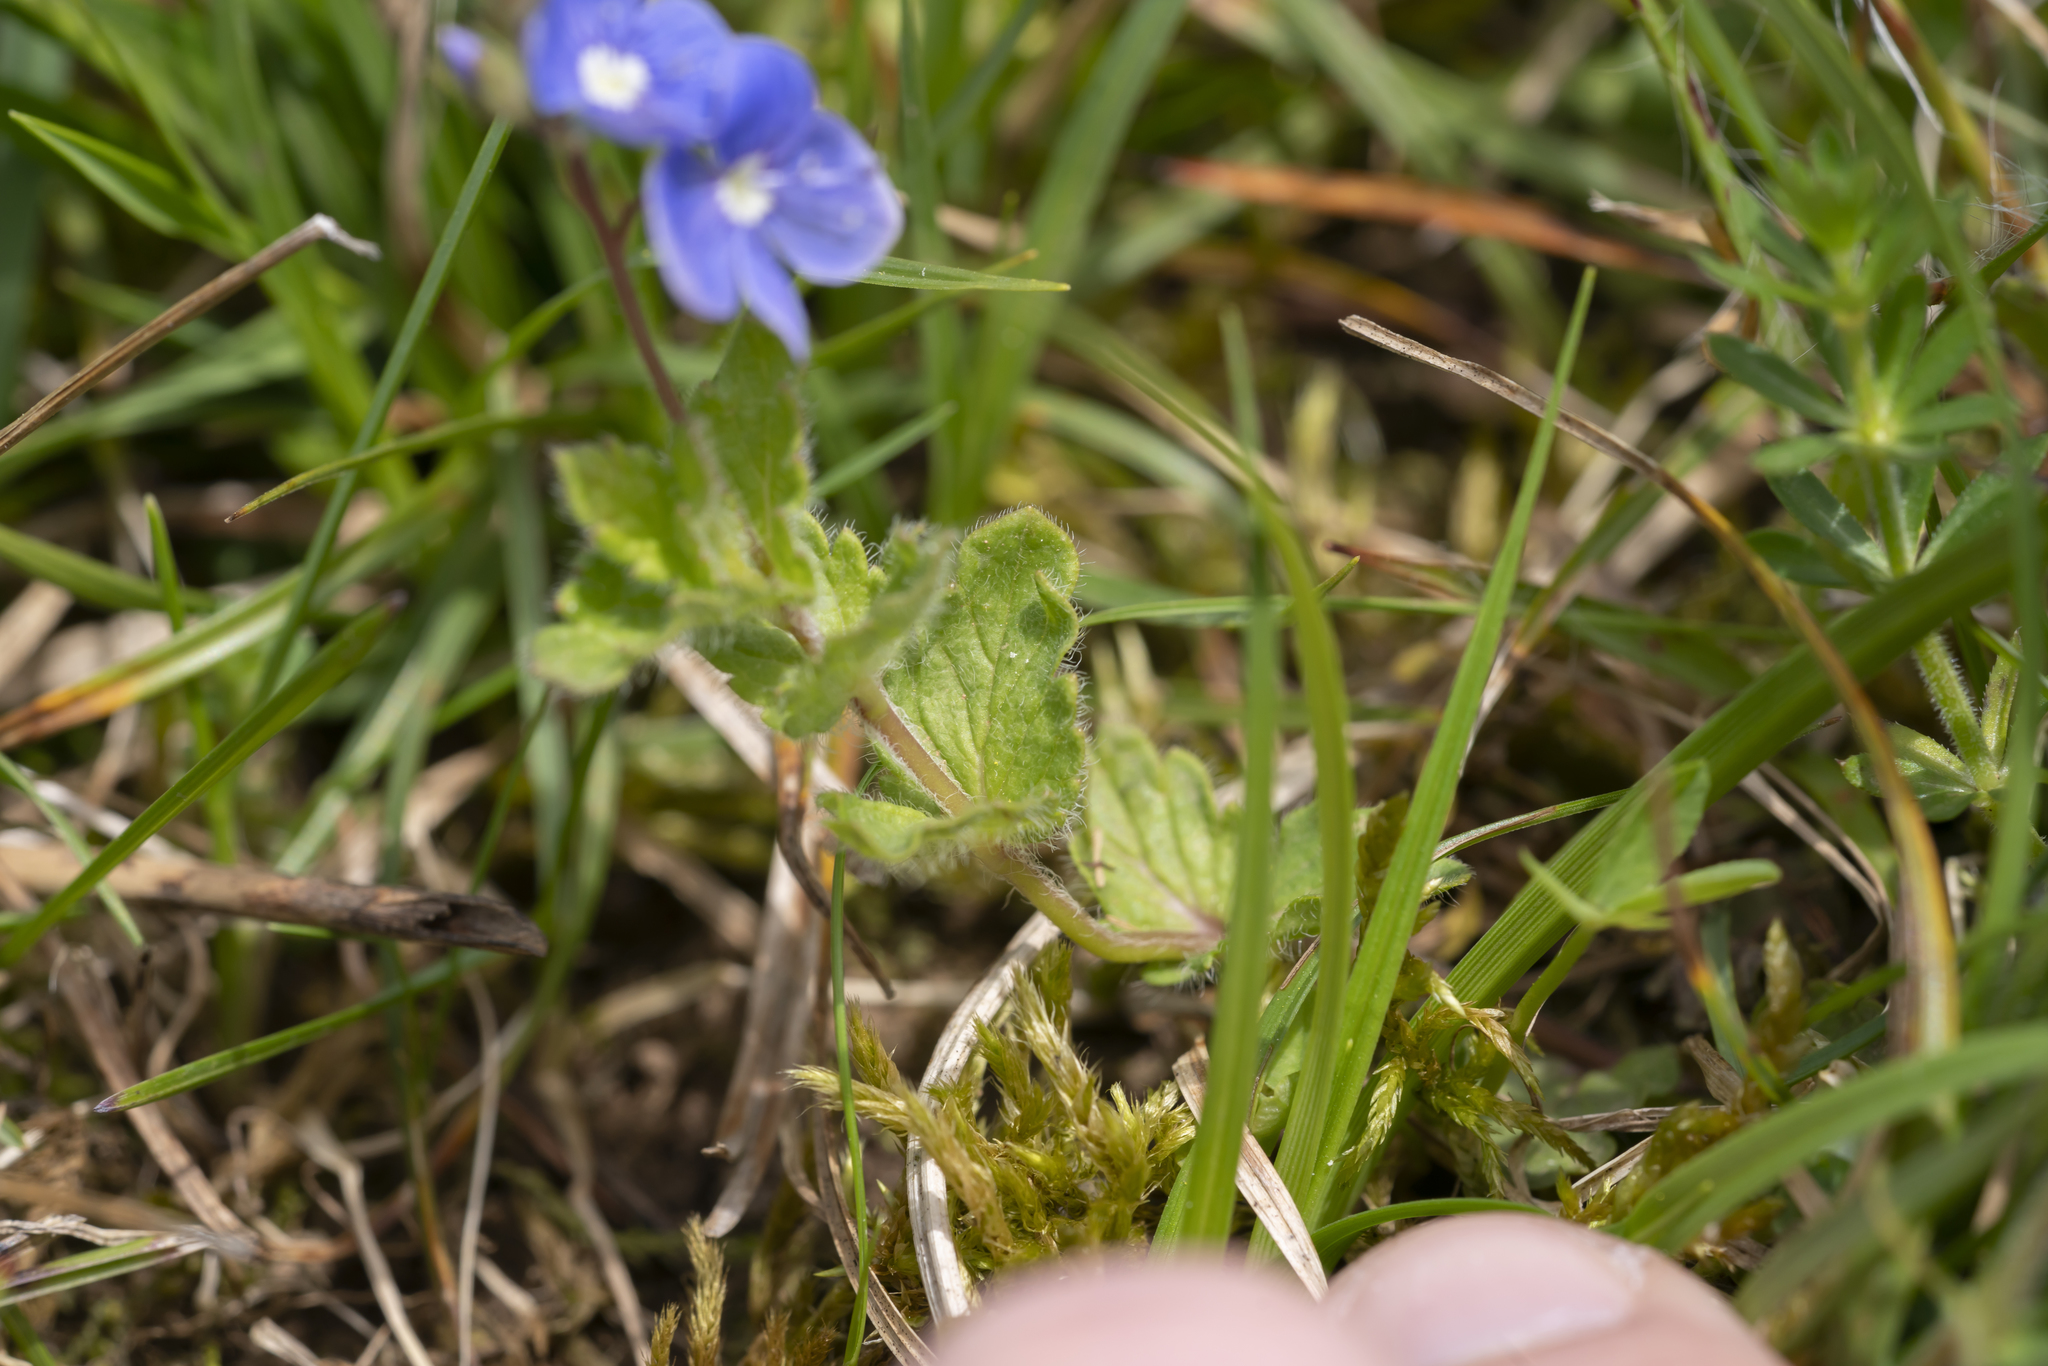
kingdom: Plantae
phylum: Tracheophyta
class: Magnoliopsida
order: Lamiales
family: Plantaginaceae
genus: Veronica
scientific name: Veronica chamaedrys
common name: Germander speedwell
